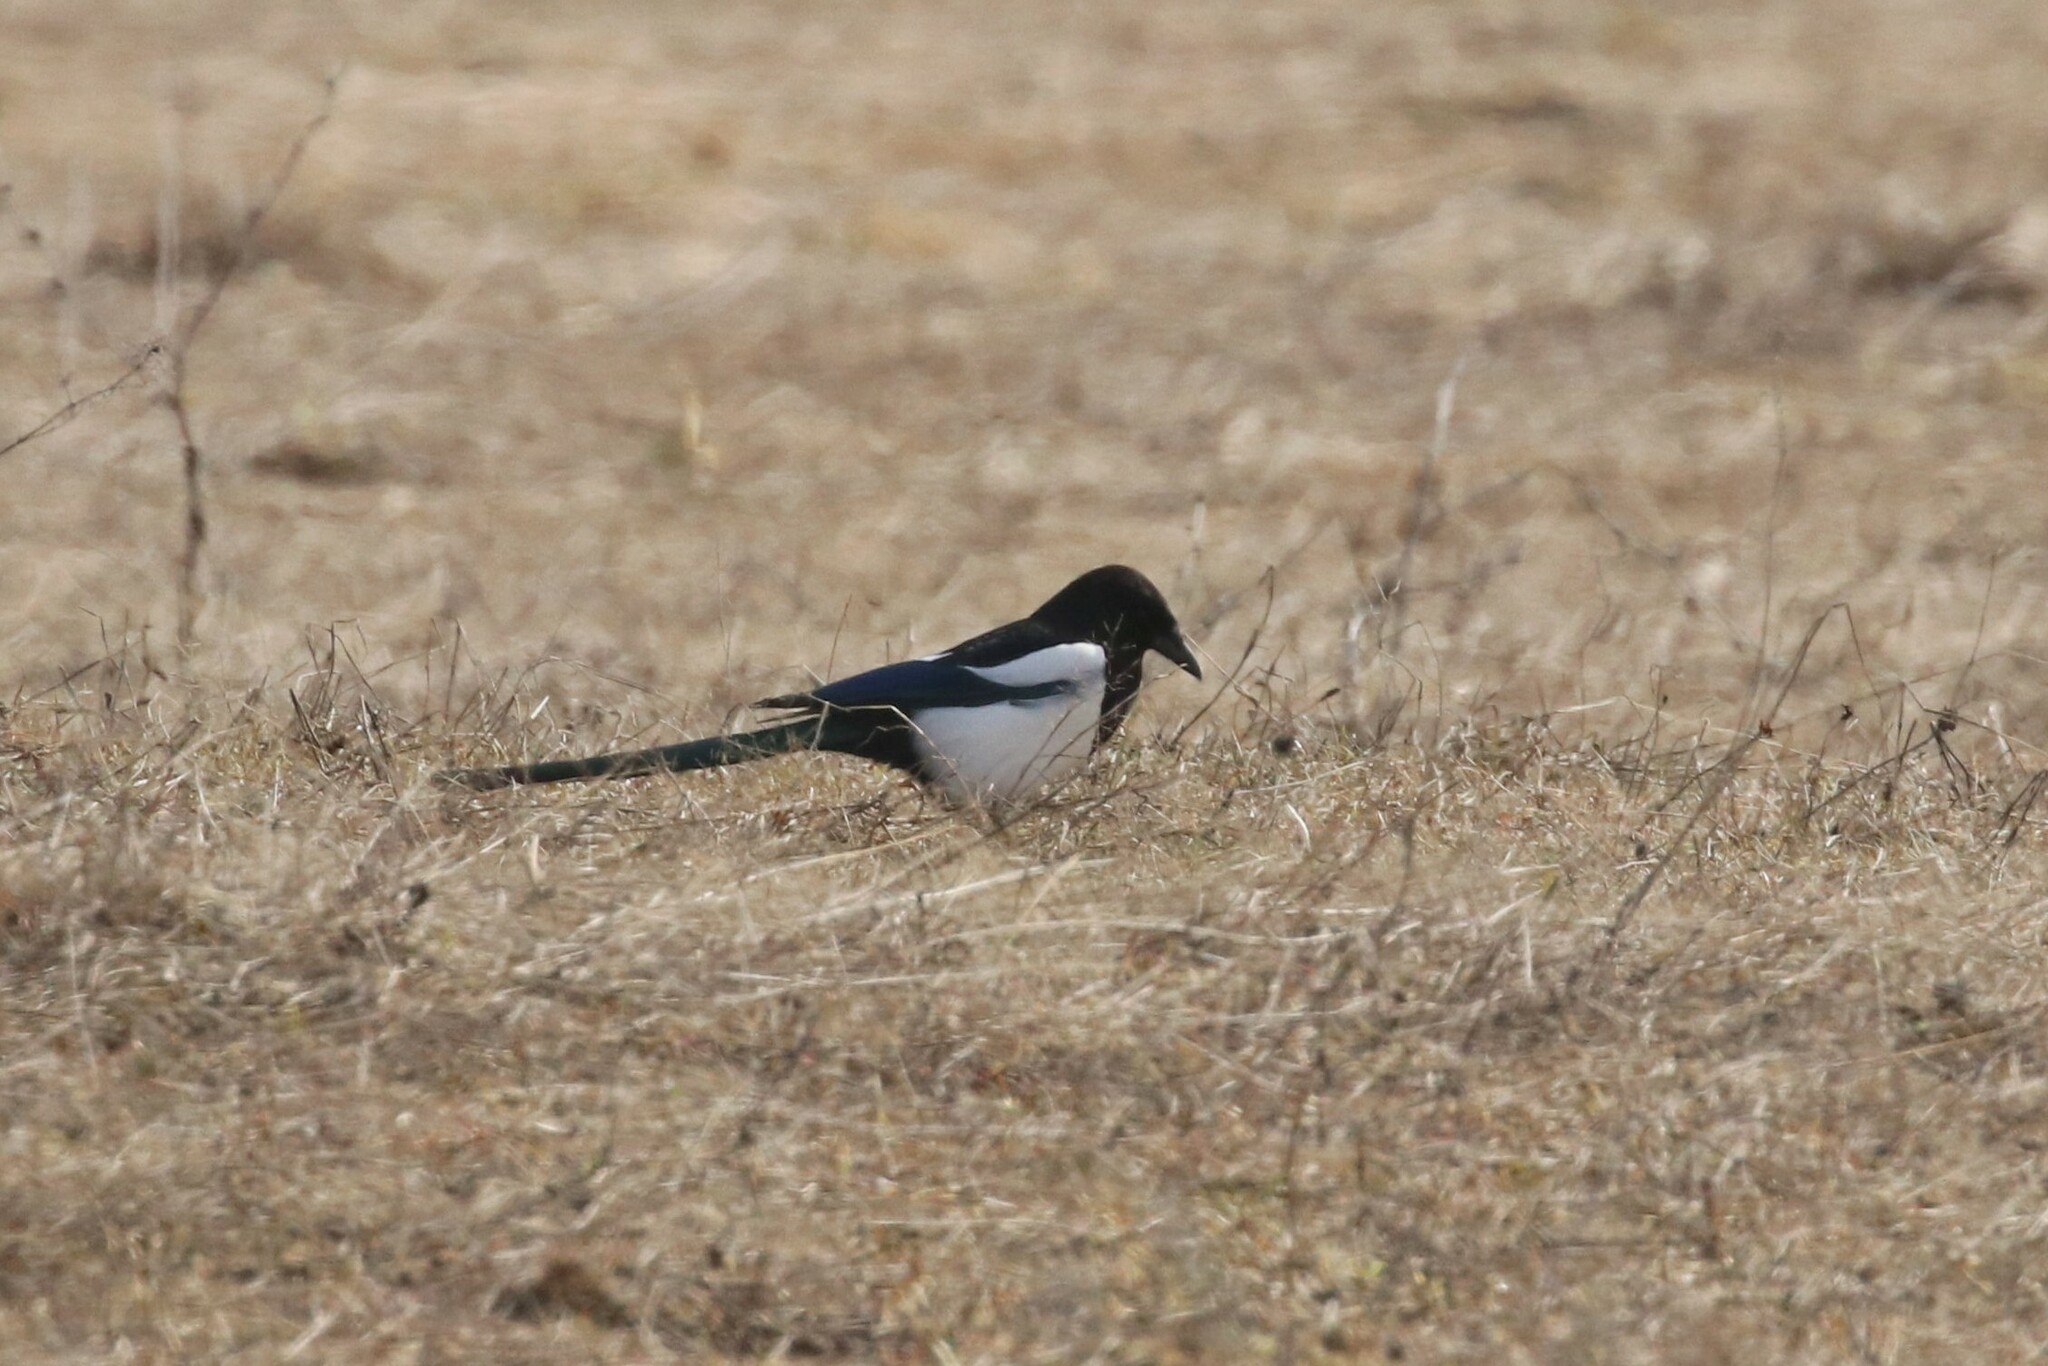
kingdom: Animalia
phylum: Chordata
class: Aves
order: Passeriformes
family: Corvidae
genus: Pica
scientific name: Pica pica
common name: Eurasian magpie
